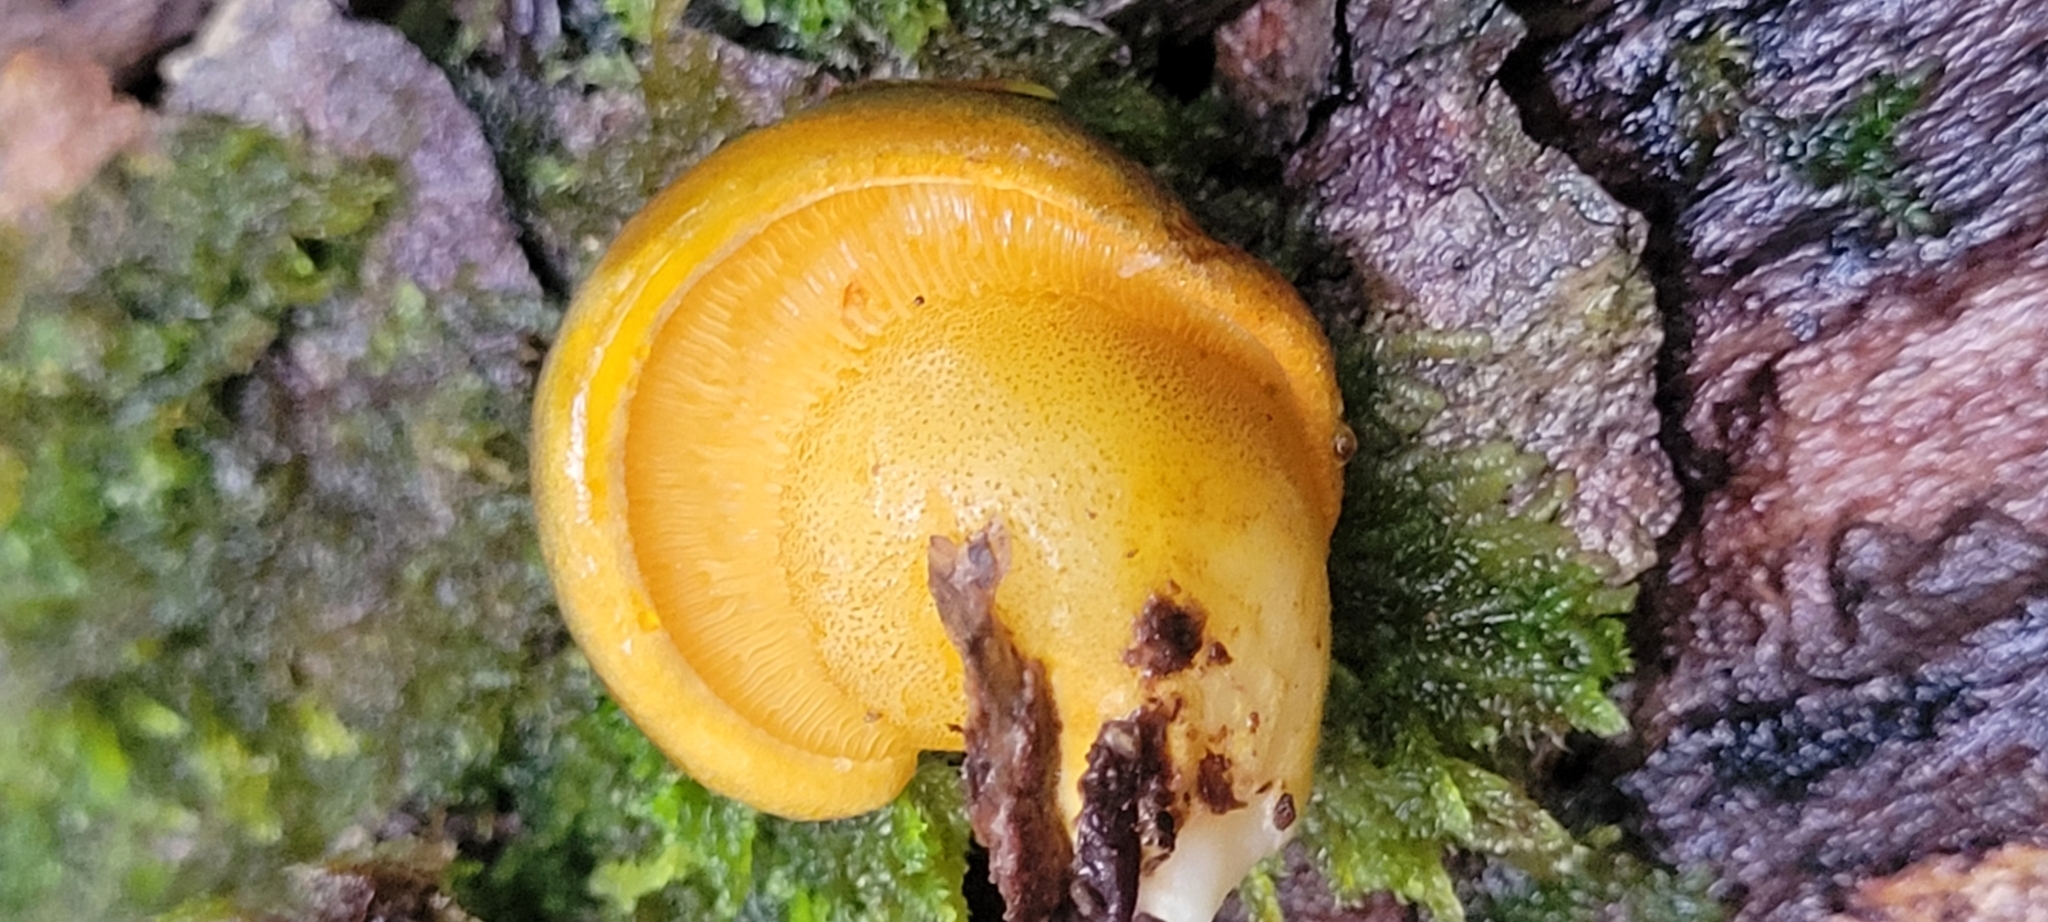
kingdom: Fungi
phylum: Basidiomycota
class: Agaricomycetes
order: Agaricales
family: Sarcomyxaceae
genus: Sarcomyxa
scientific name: Sarcomyxa serotina
